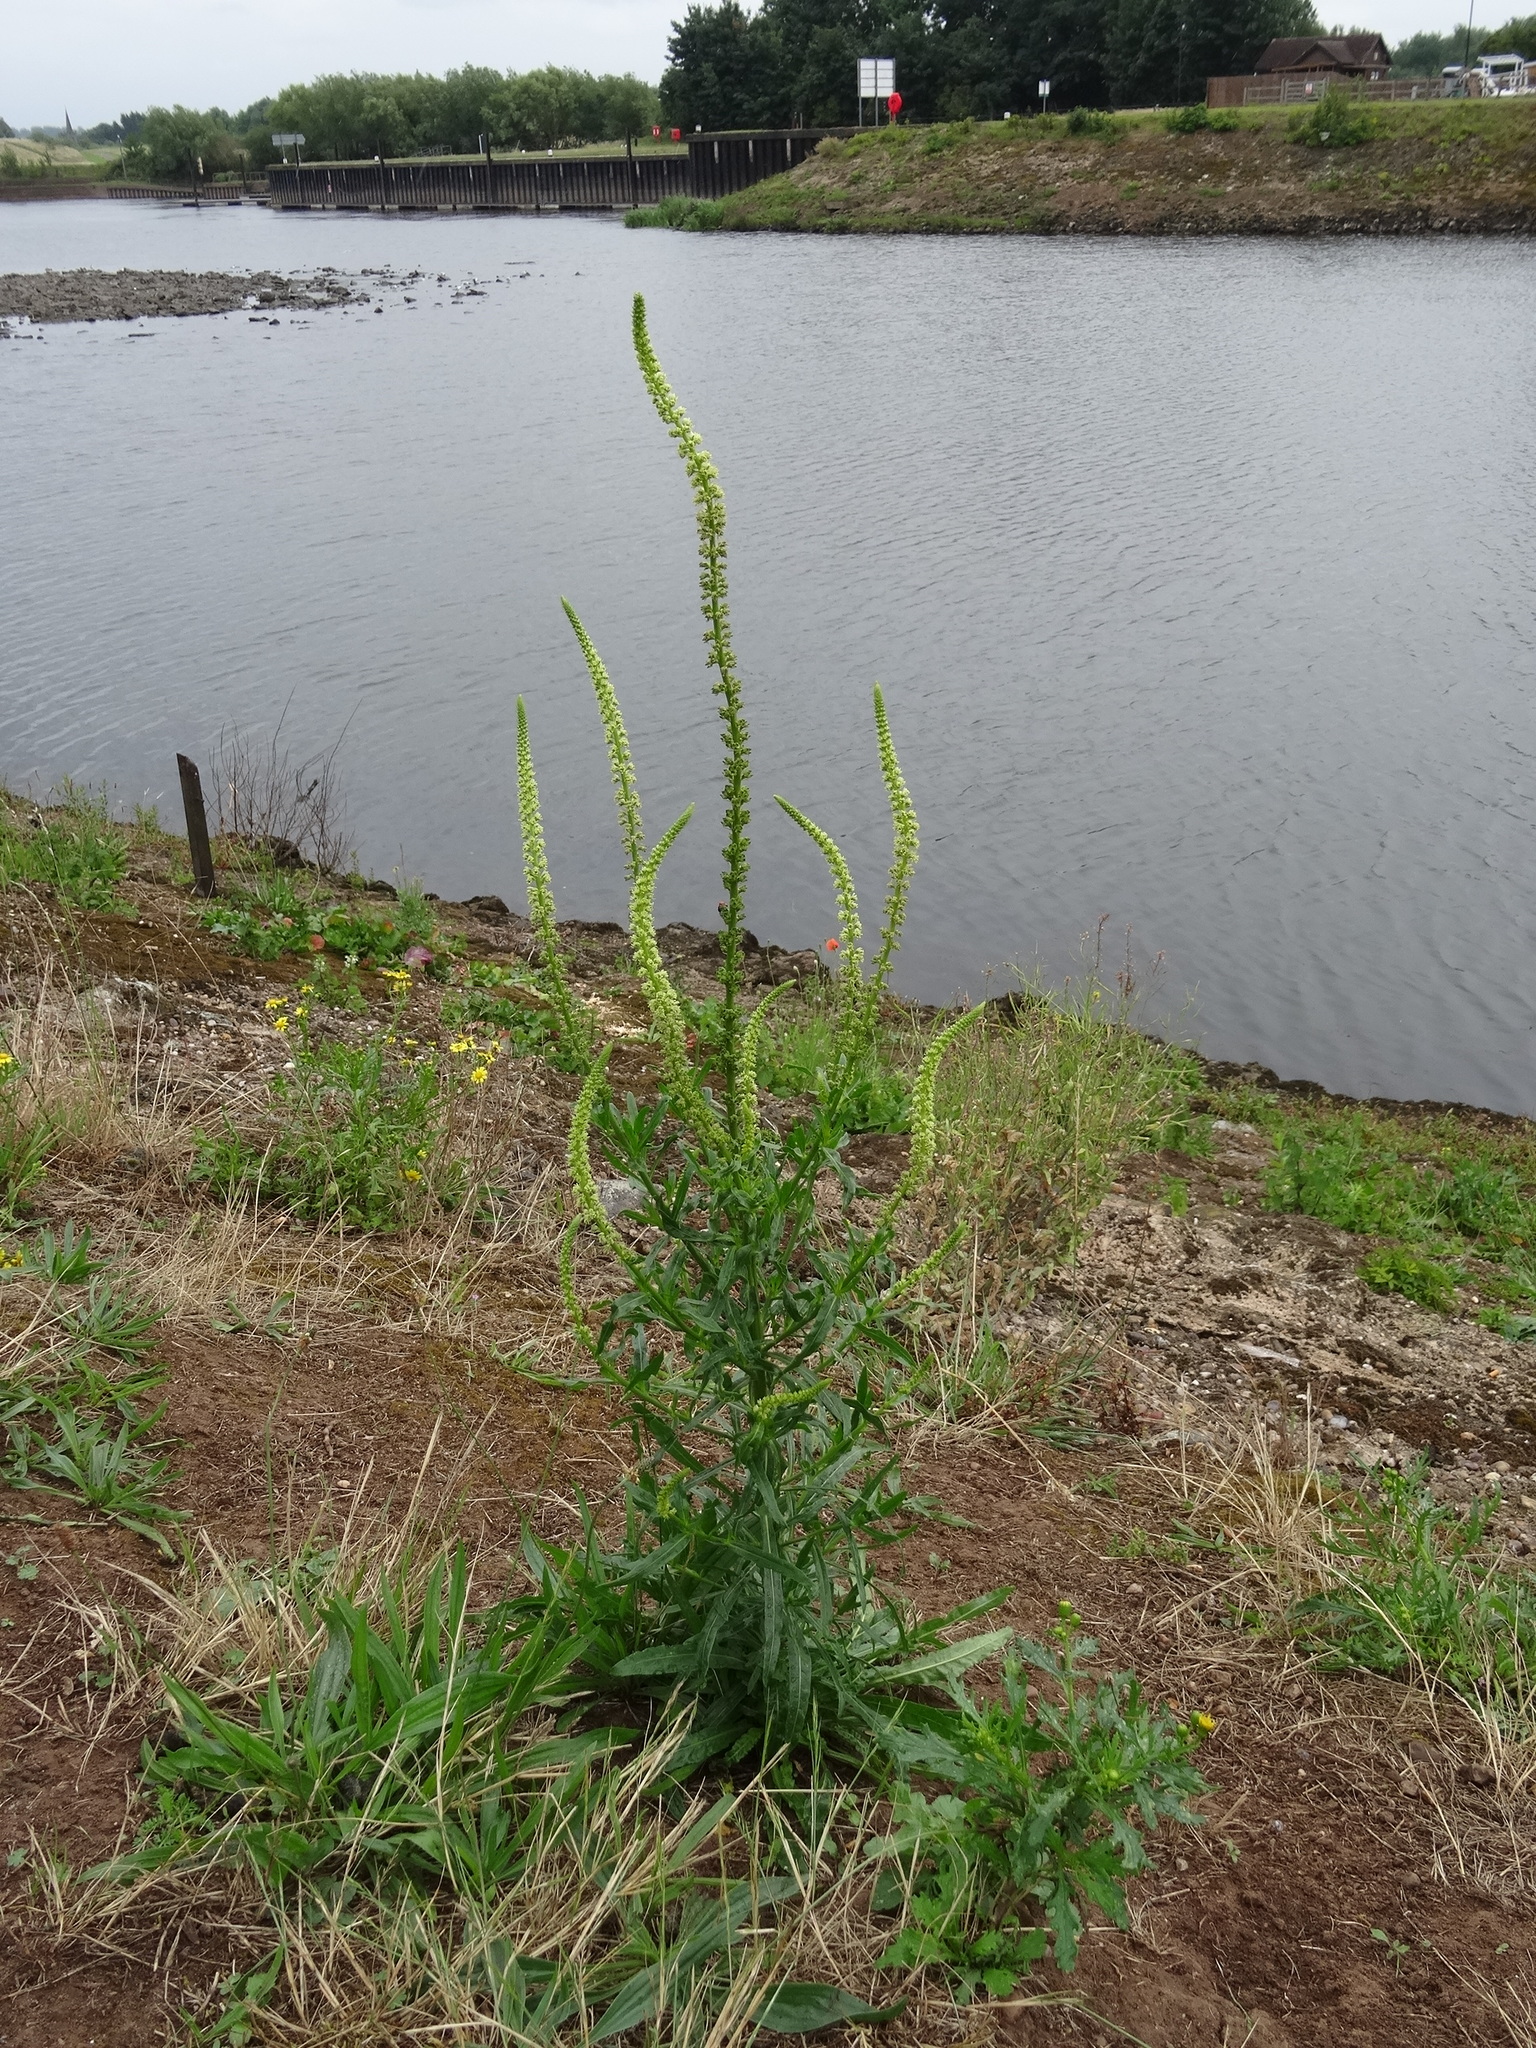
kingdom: Plantae
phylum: Tracheophyta
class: Magnoliopsida
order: Brassicales
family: Resedaceae
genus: Reseda
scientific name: Reseda luteola
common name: Weld
